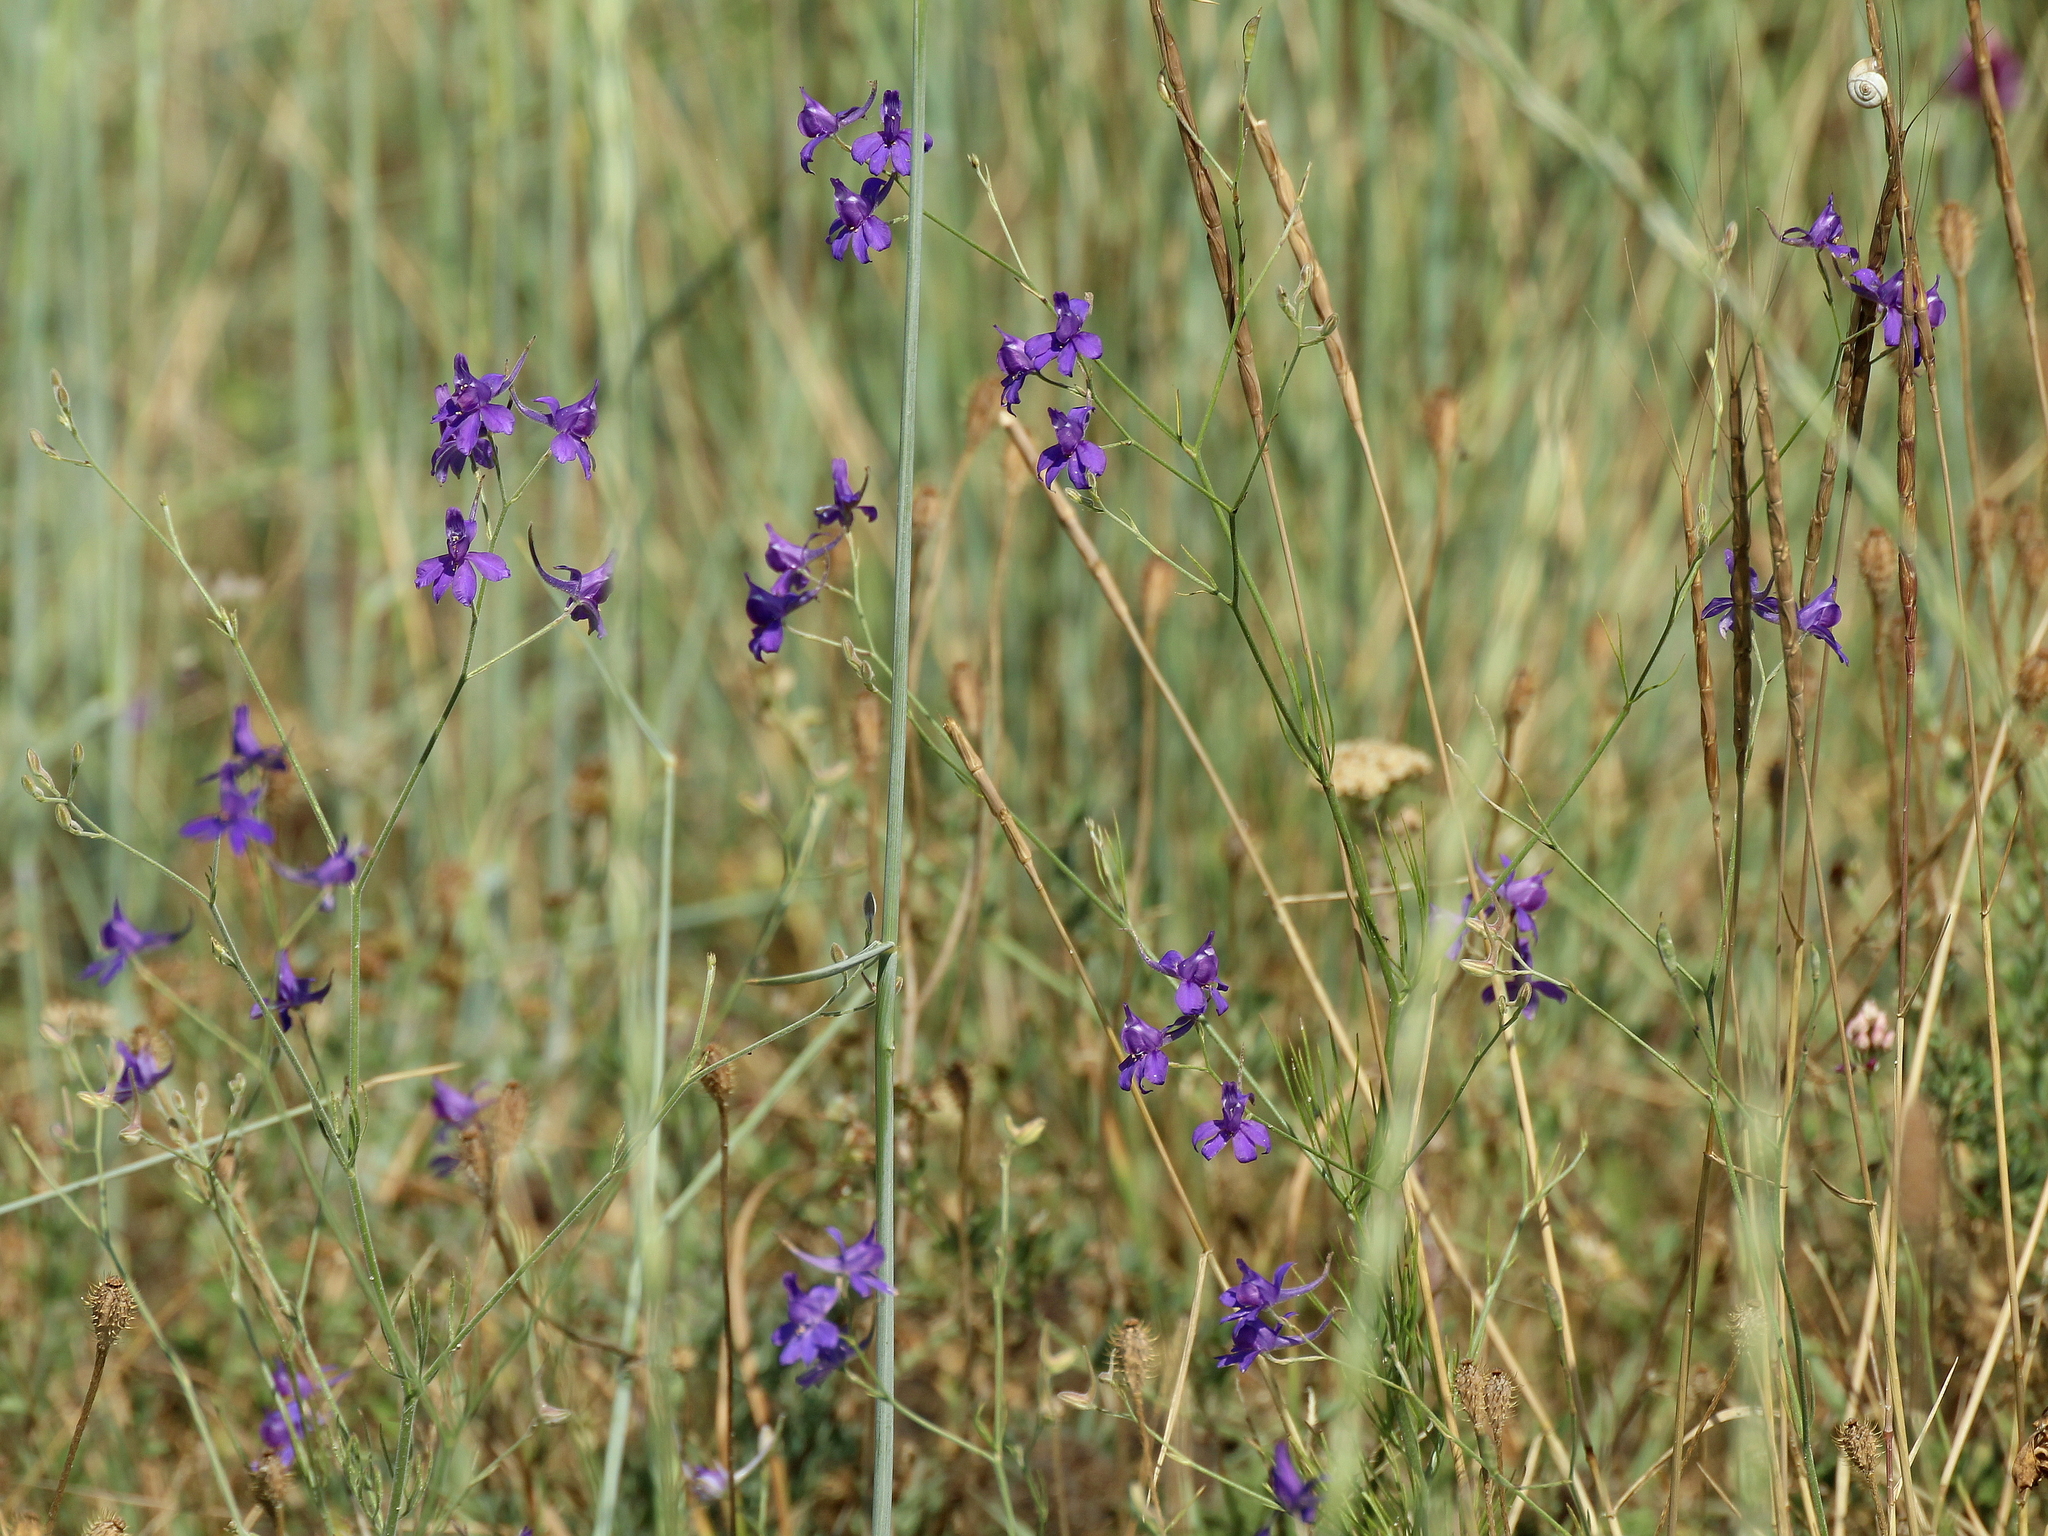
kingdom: Plantae
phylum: Tracheophyta
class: Magnoliopsida
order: Ranunculales
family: Ranunculaceae
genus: Delphinium
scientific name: Delphinium consolida
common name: Branching larkspur
